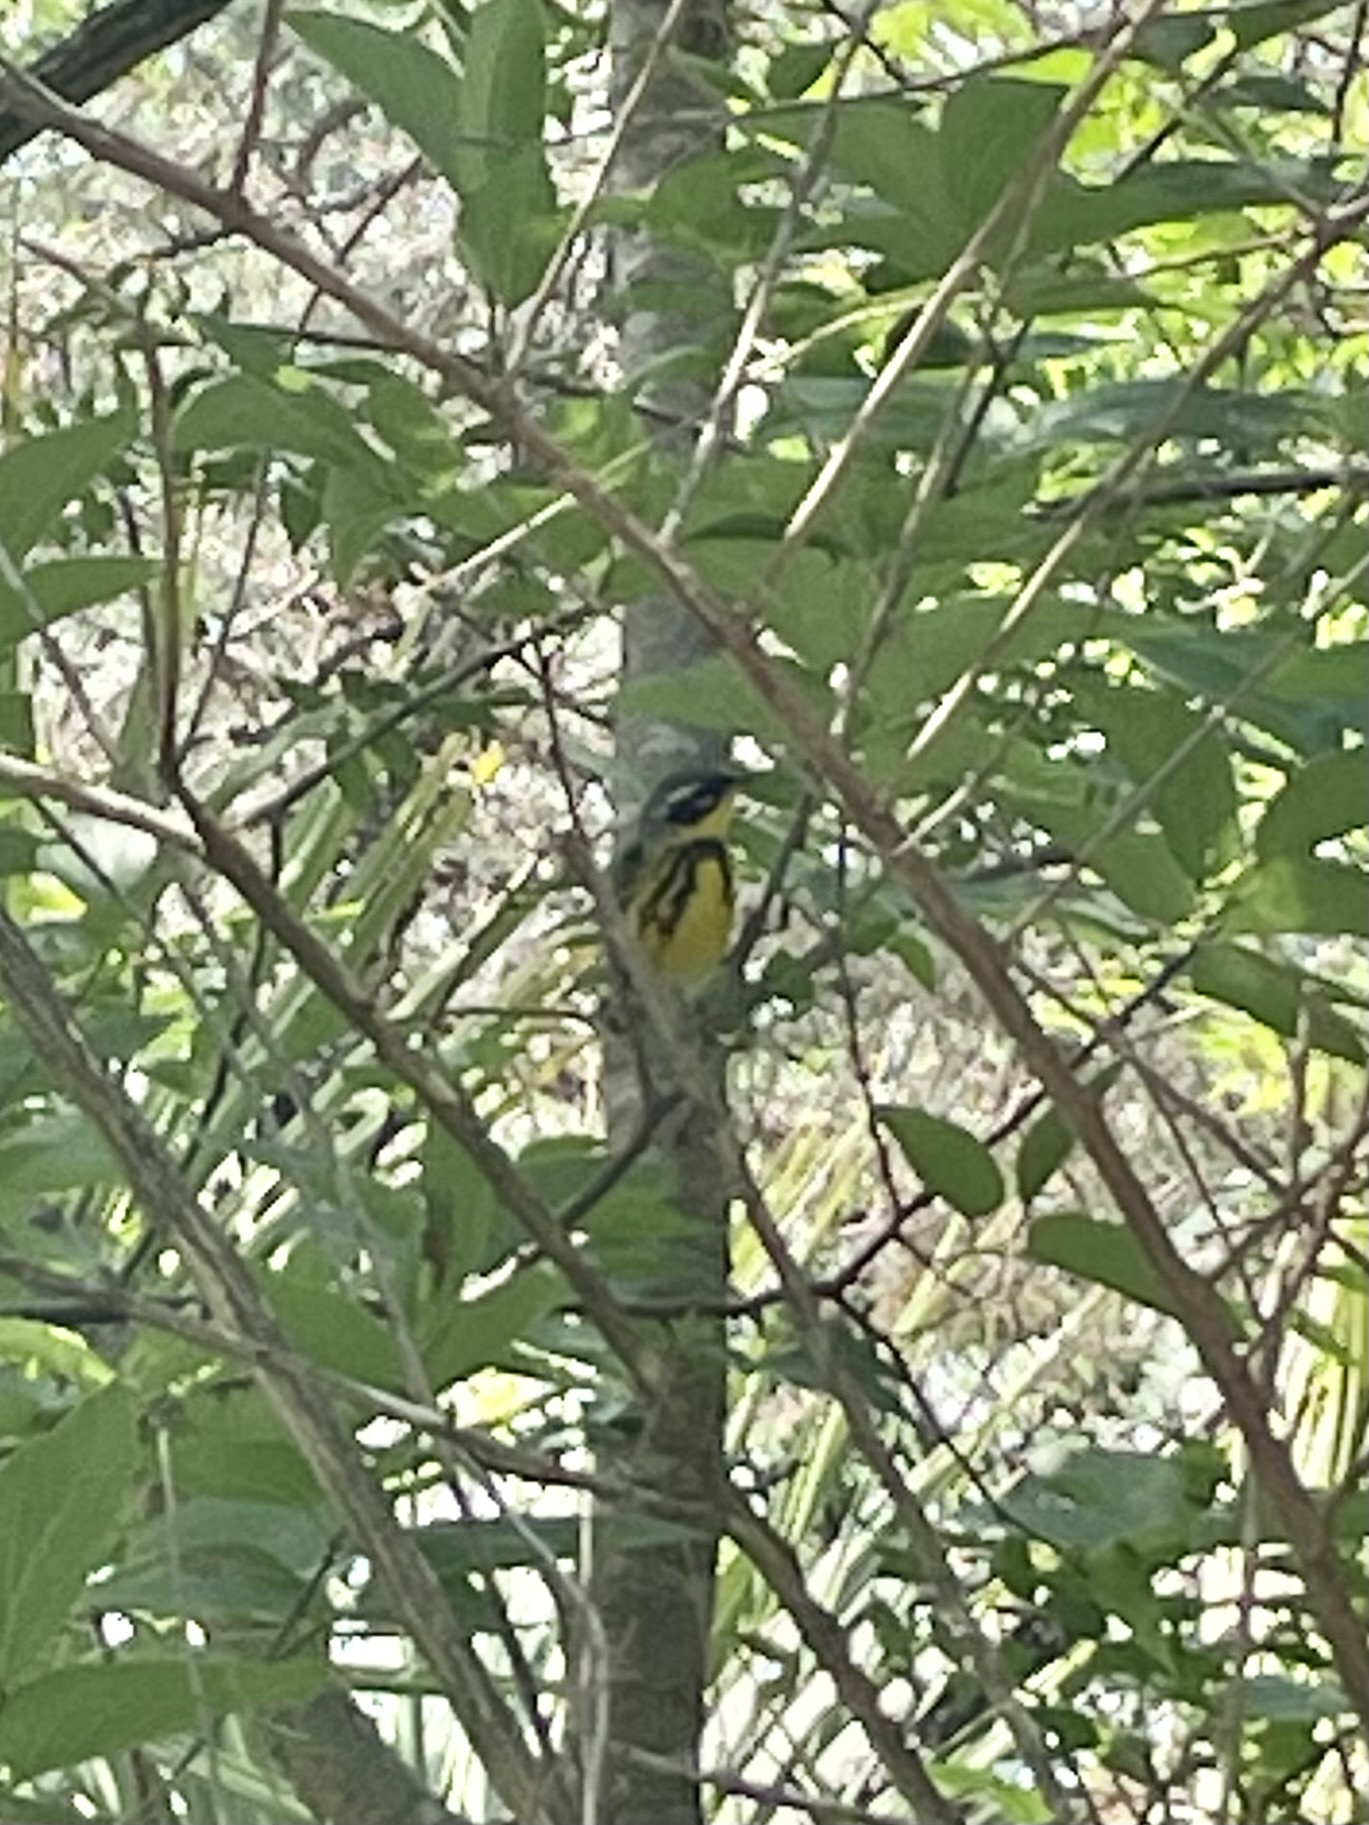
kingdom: Animalia
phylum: Chordata
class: Aves
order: Passeriformes
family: Parulidae
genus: Setophaga
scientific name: Setophaga magnolia
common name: Magnolia warbler
